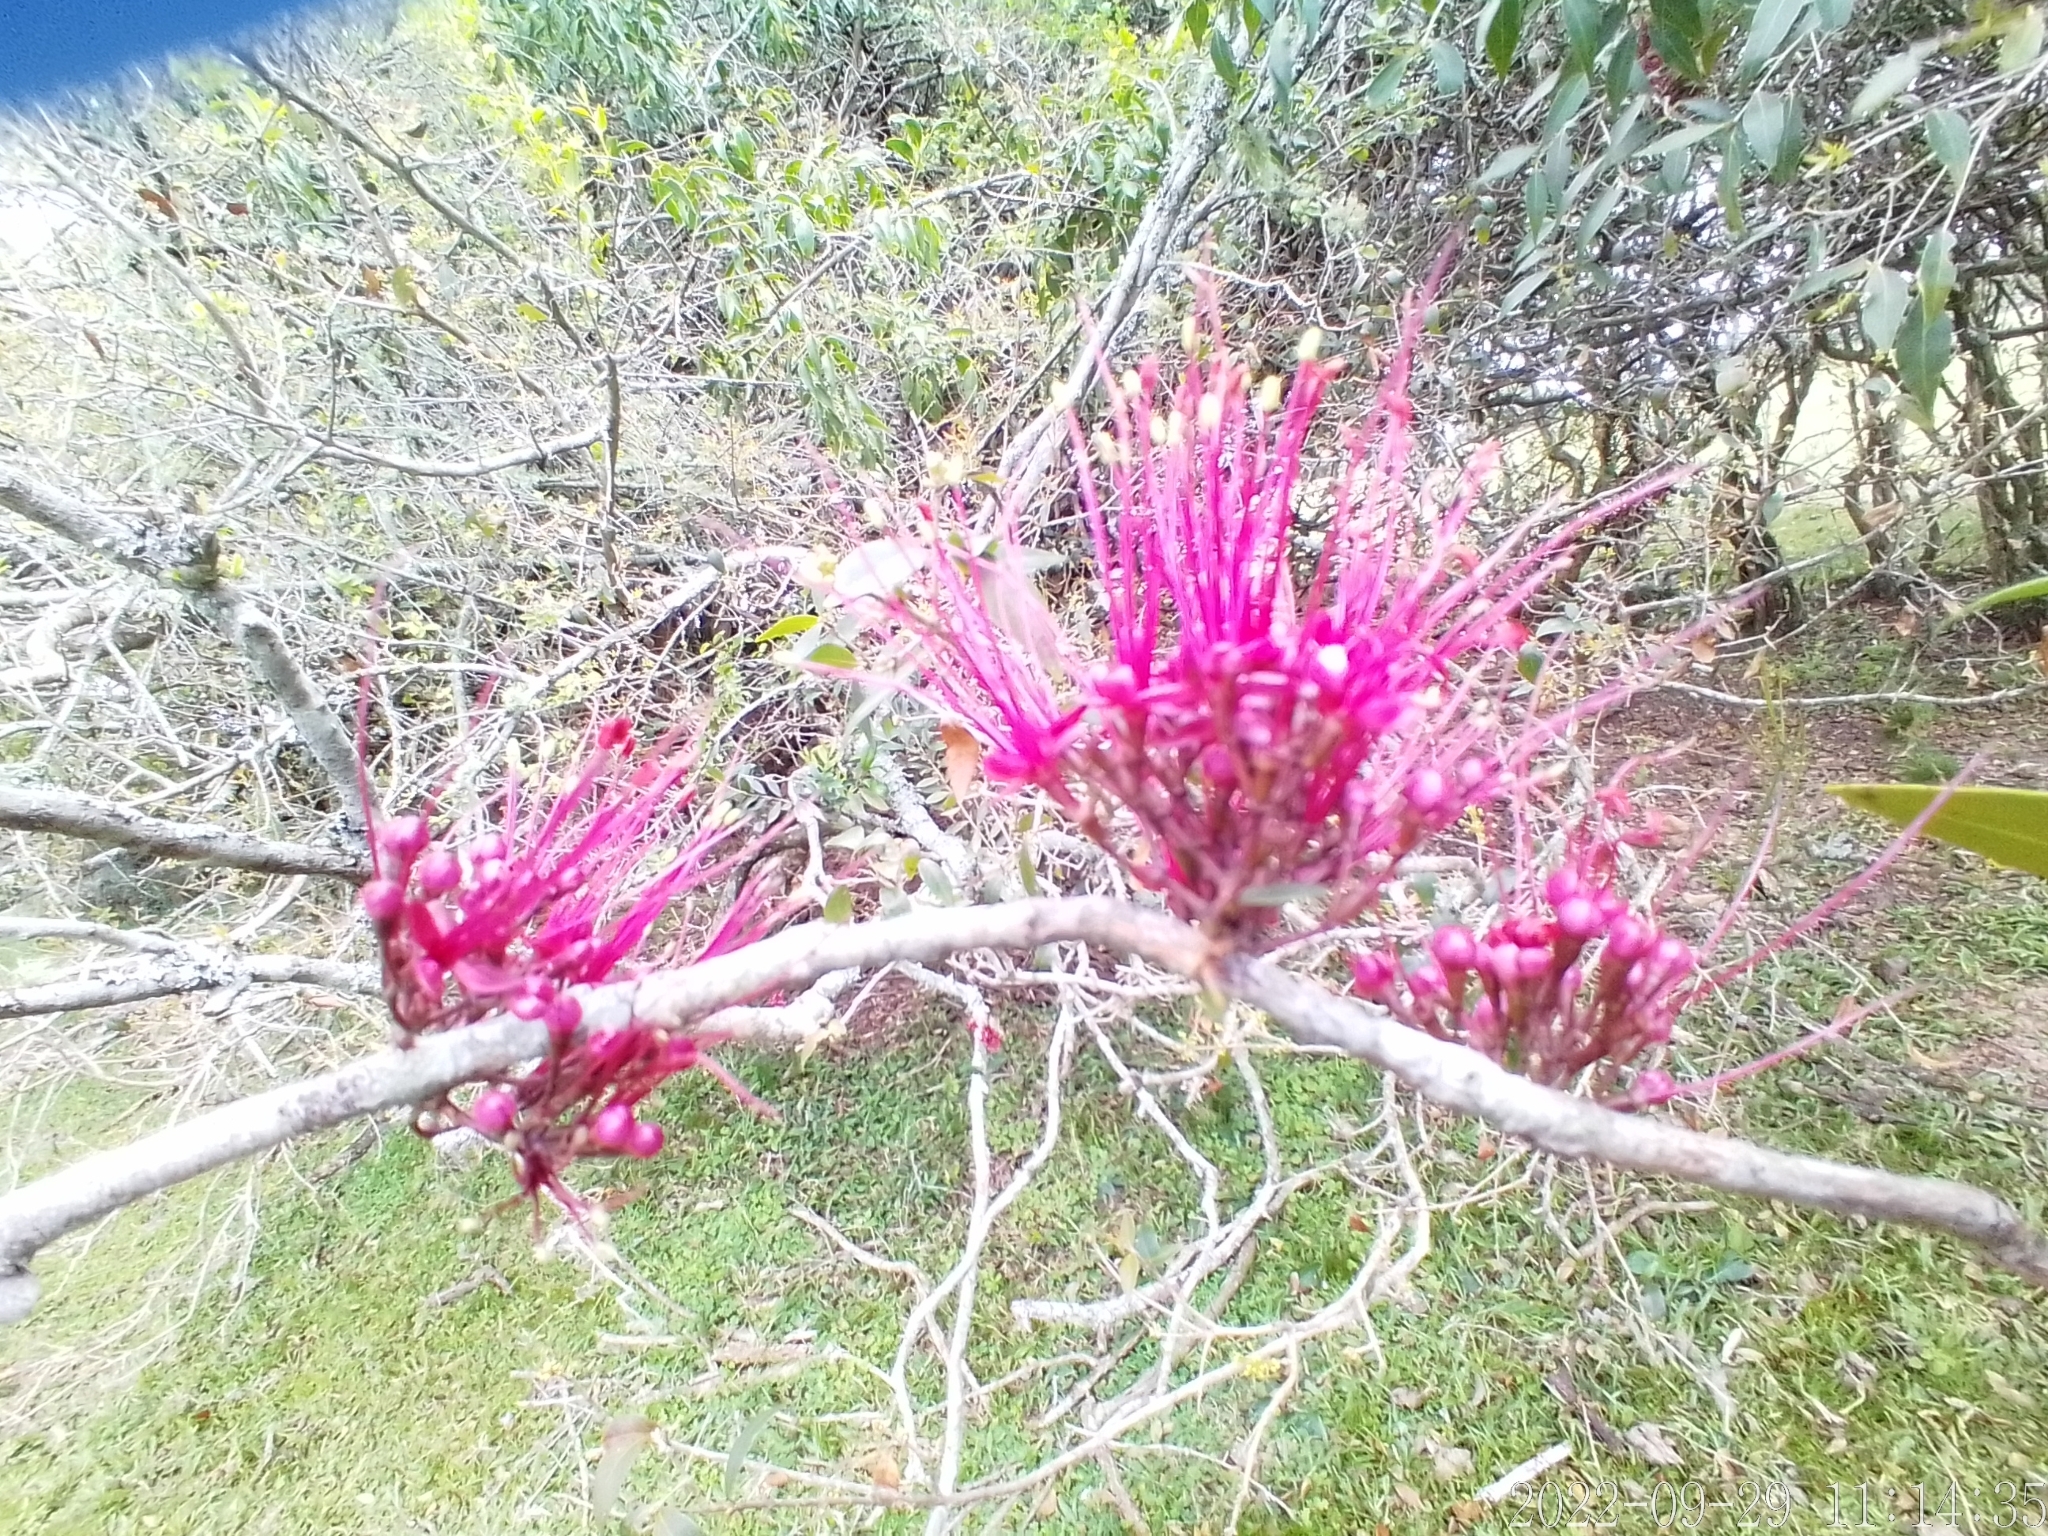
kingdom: Plantae
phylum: Tracheophyta
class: Magnoliopsida
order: Myrtales
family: Myrtaceae
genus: Myrrhinium
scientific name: Myrrhinium atropurpureum
